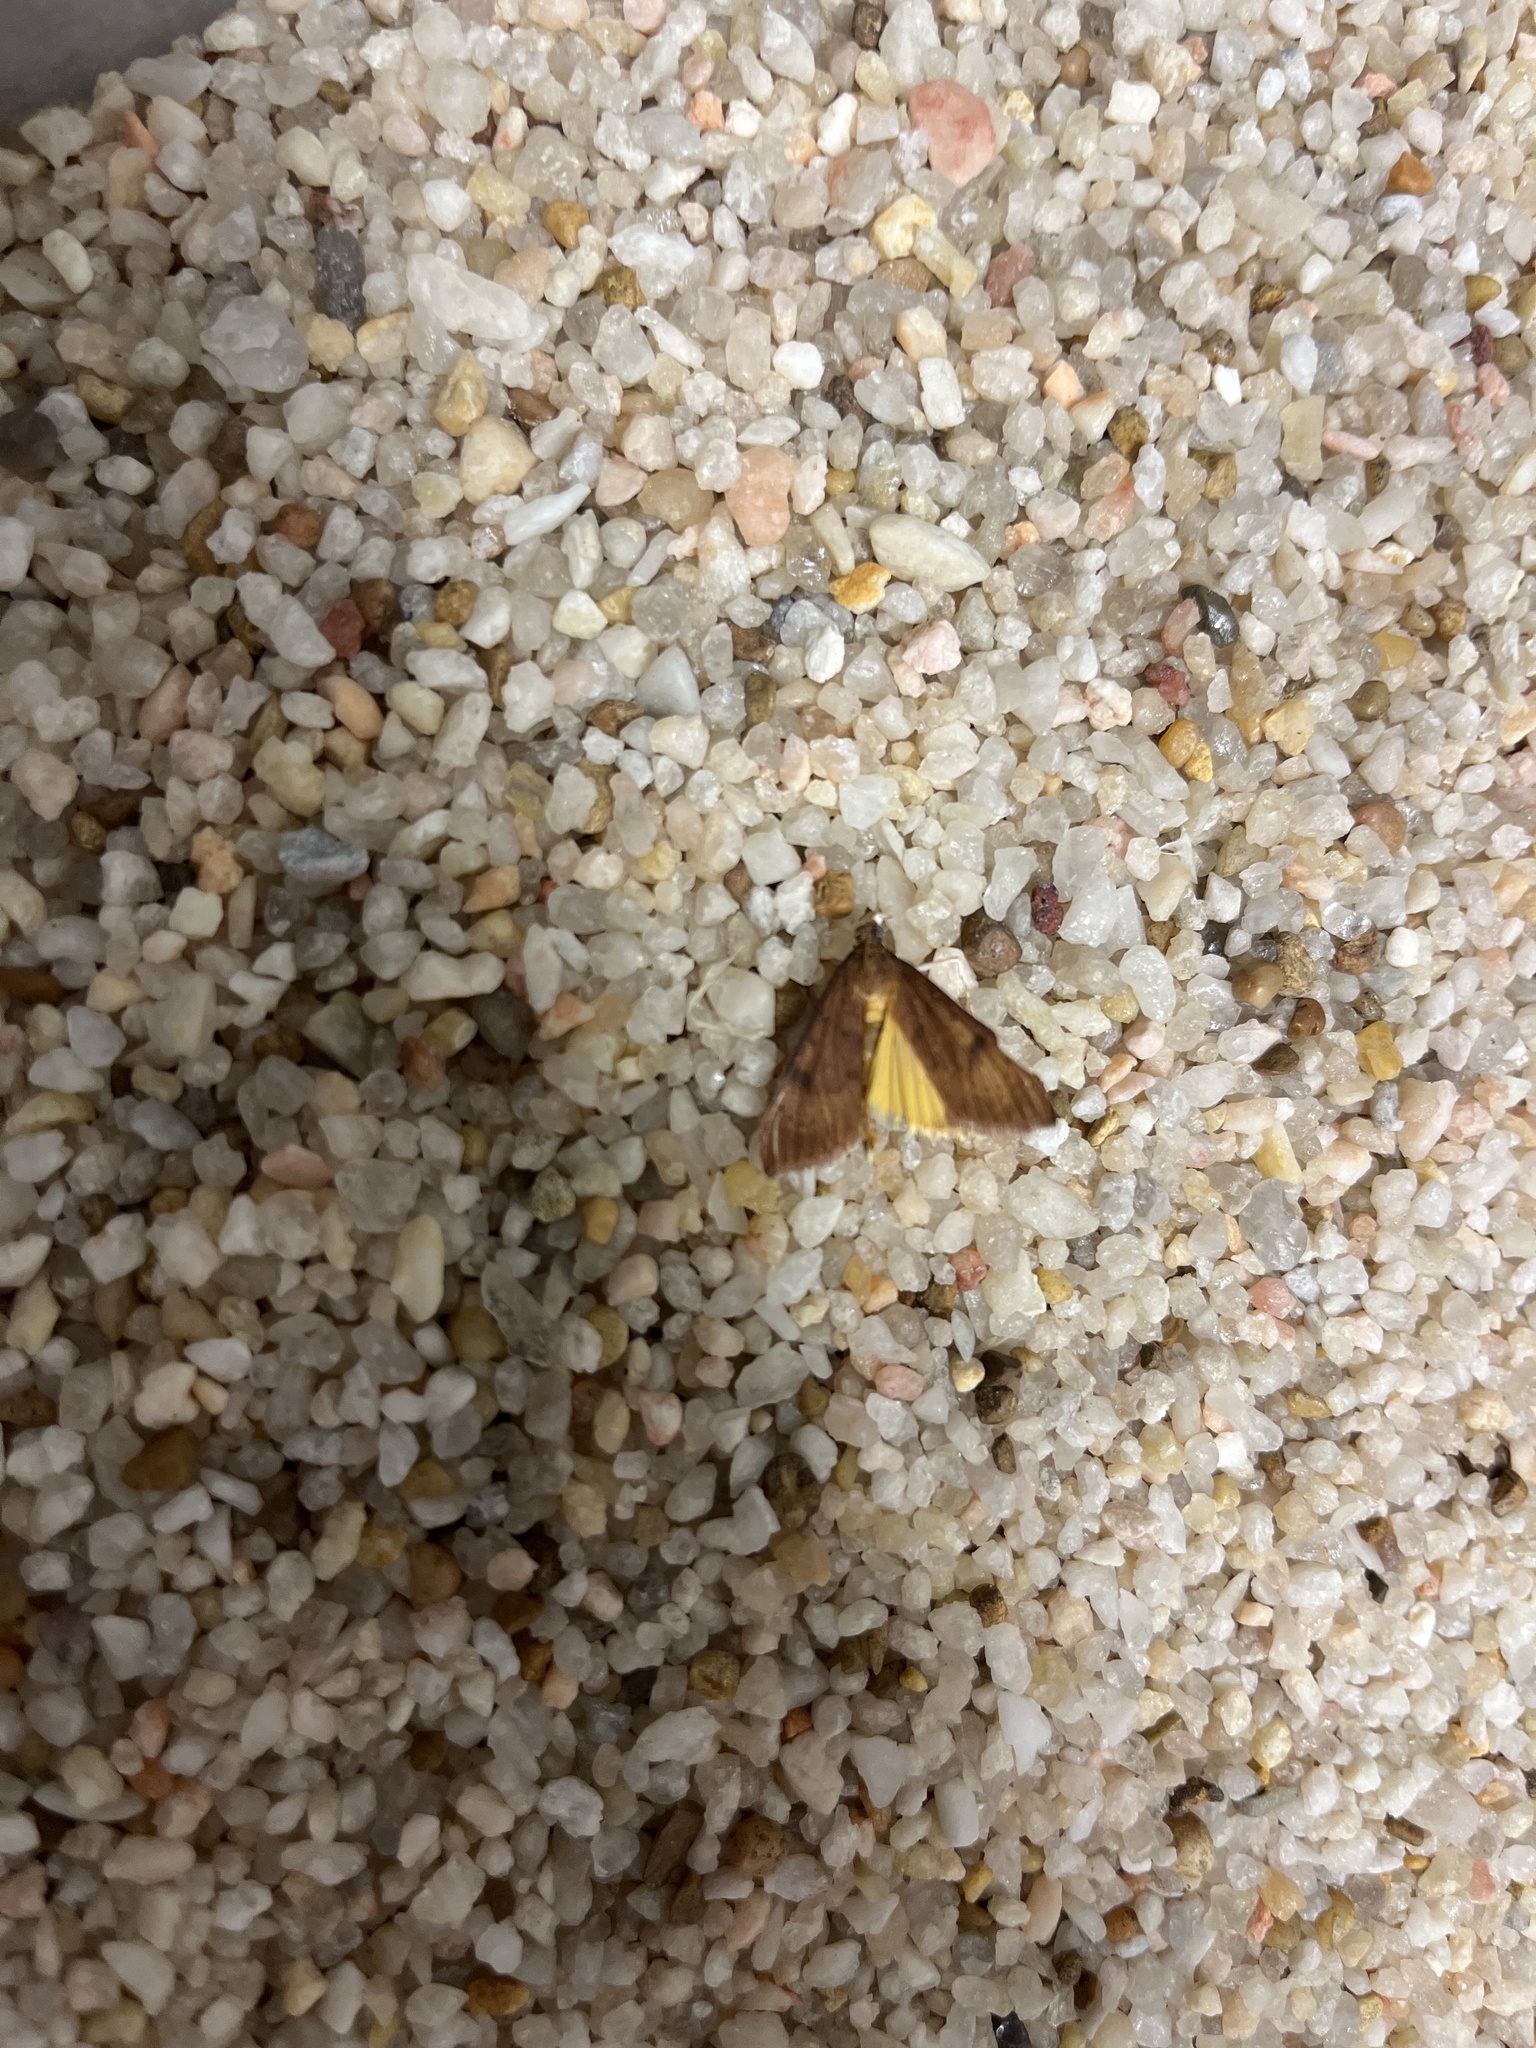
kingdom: Animalia
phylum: Arthropoda
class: Insecta
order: Lepidoptera
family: Crambidae
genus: Uresiphita
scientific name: Uresiphita reversalis
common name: Genista broom moth
